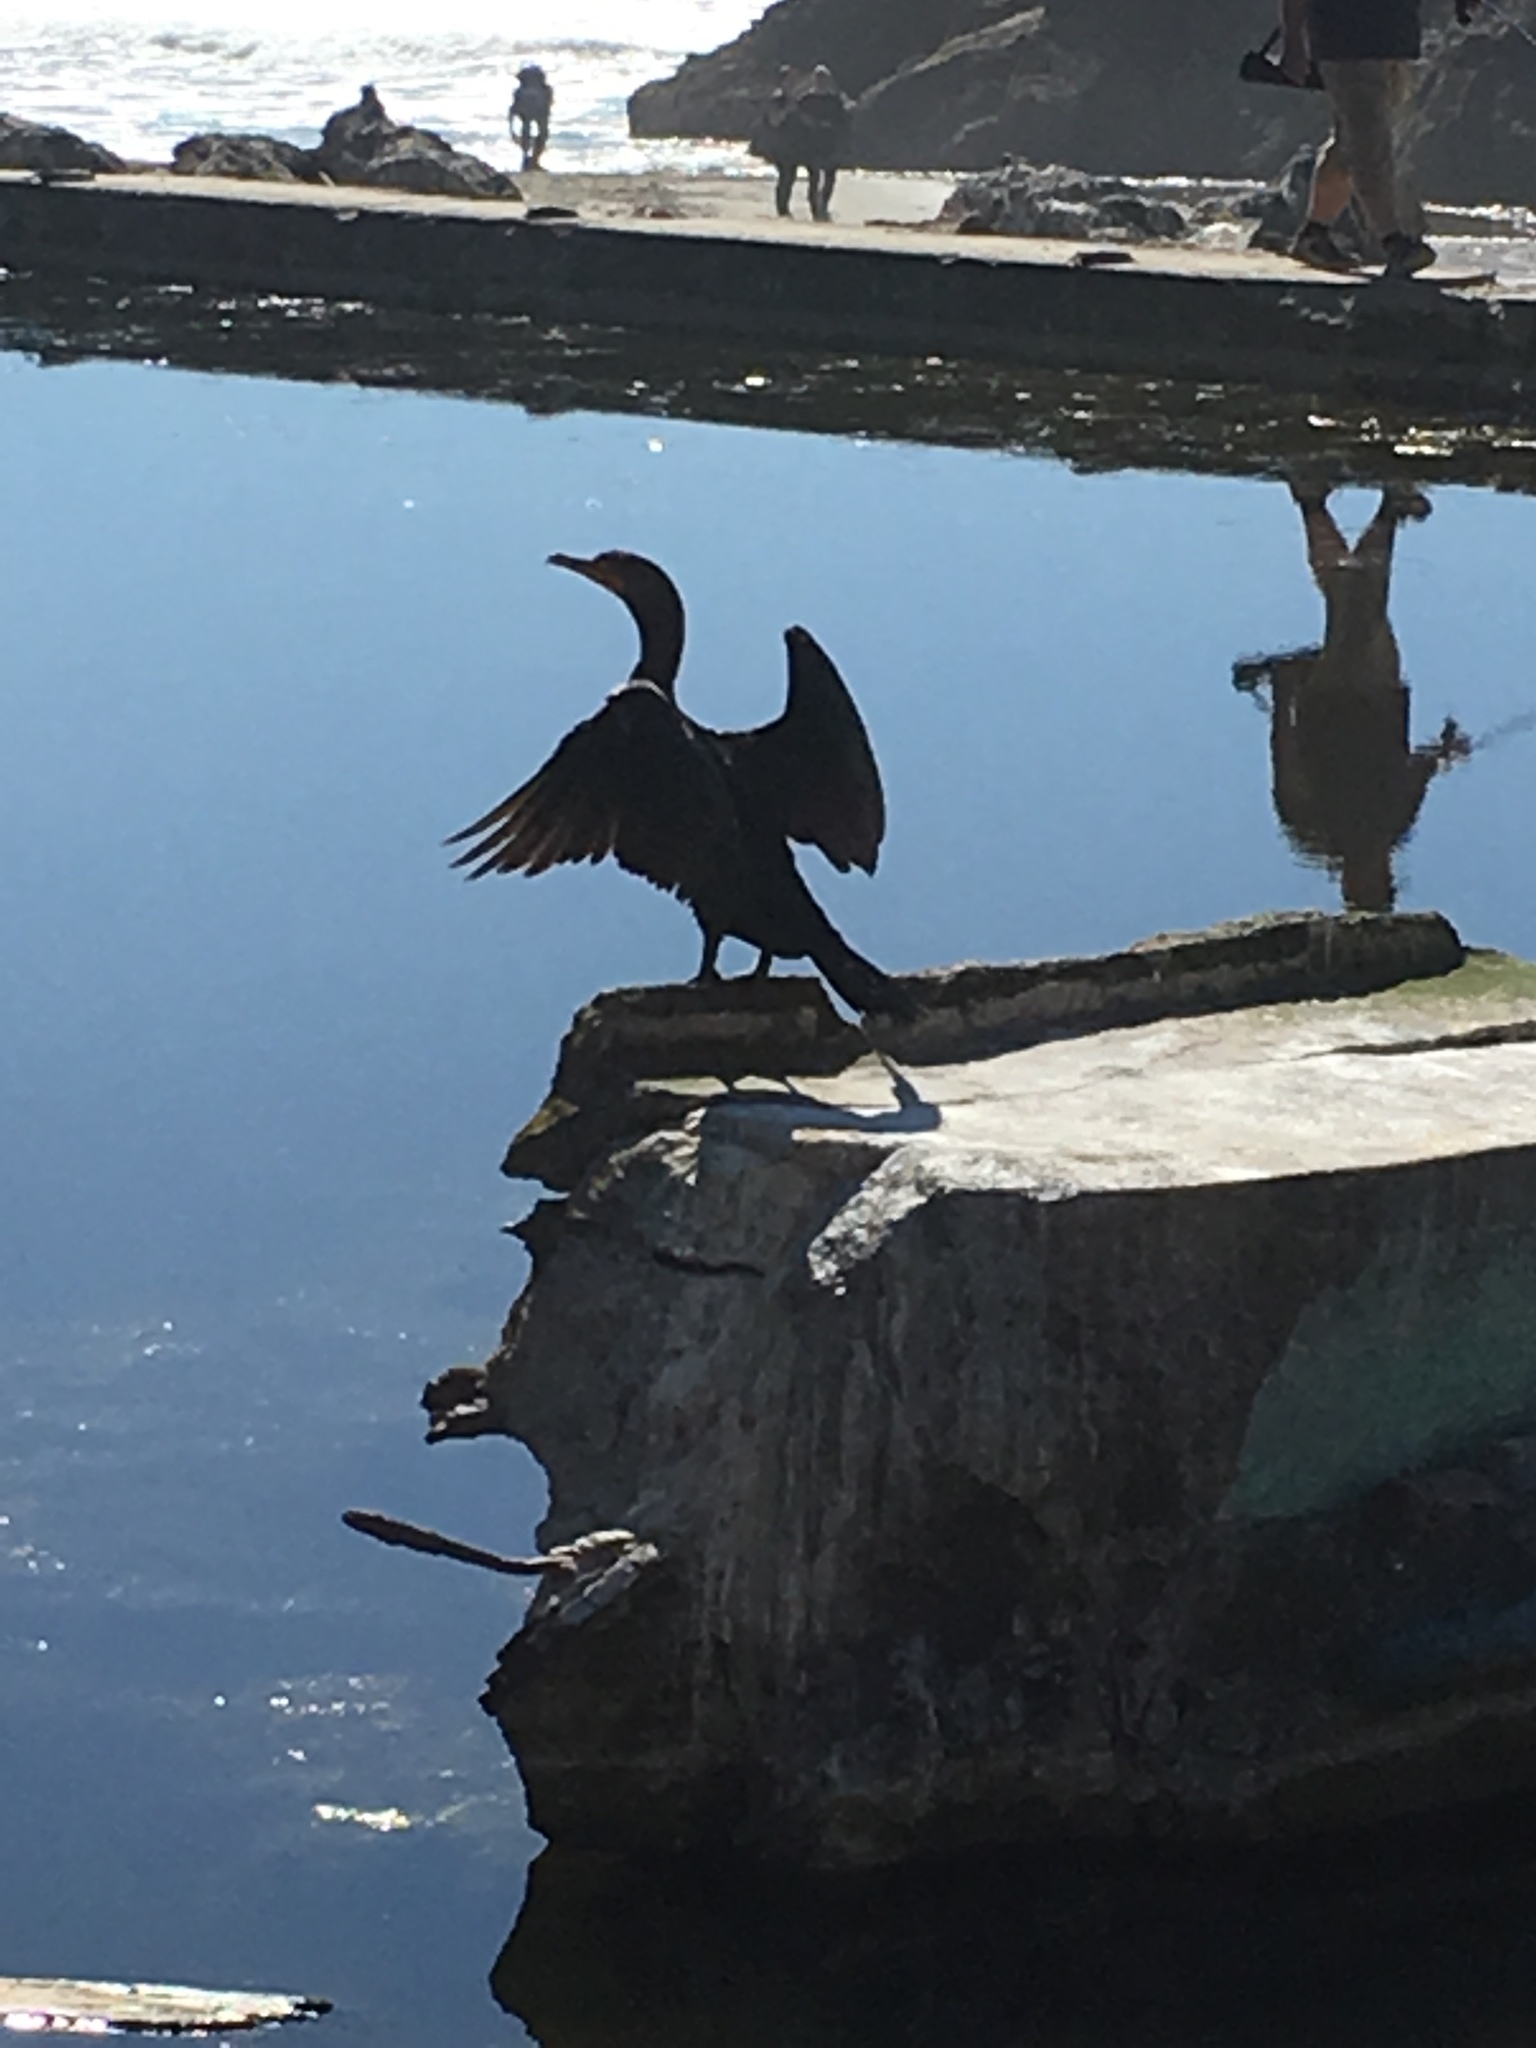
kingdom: Animalia
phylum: Chordata
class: Aves
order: Suliformes
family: Phalacrocoracidae
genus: Phalacrocorax
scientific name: Phalacrocorax auritus
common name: Double-crested cormorant
